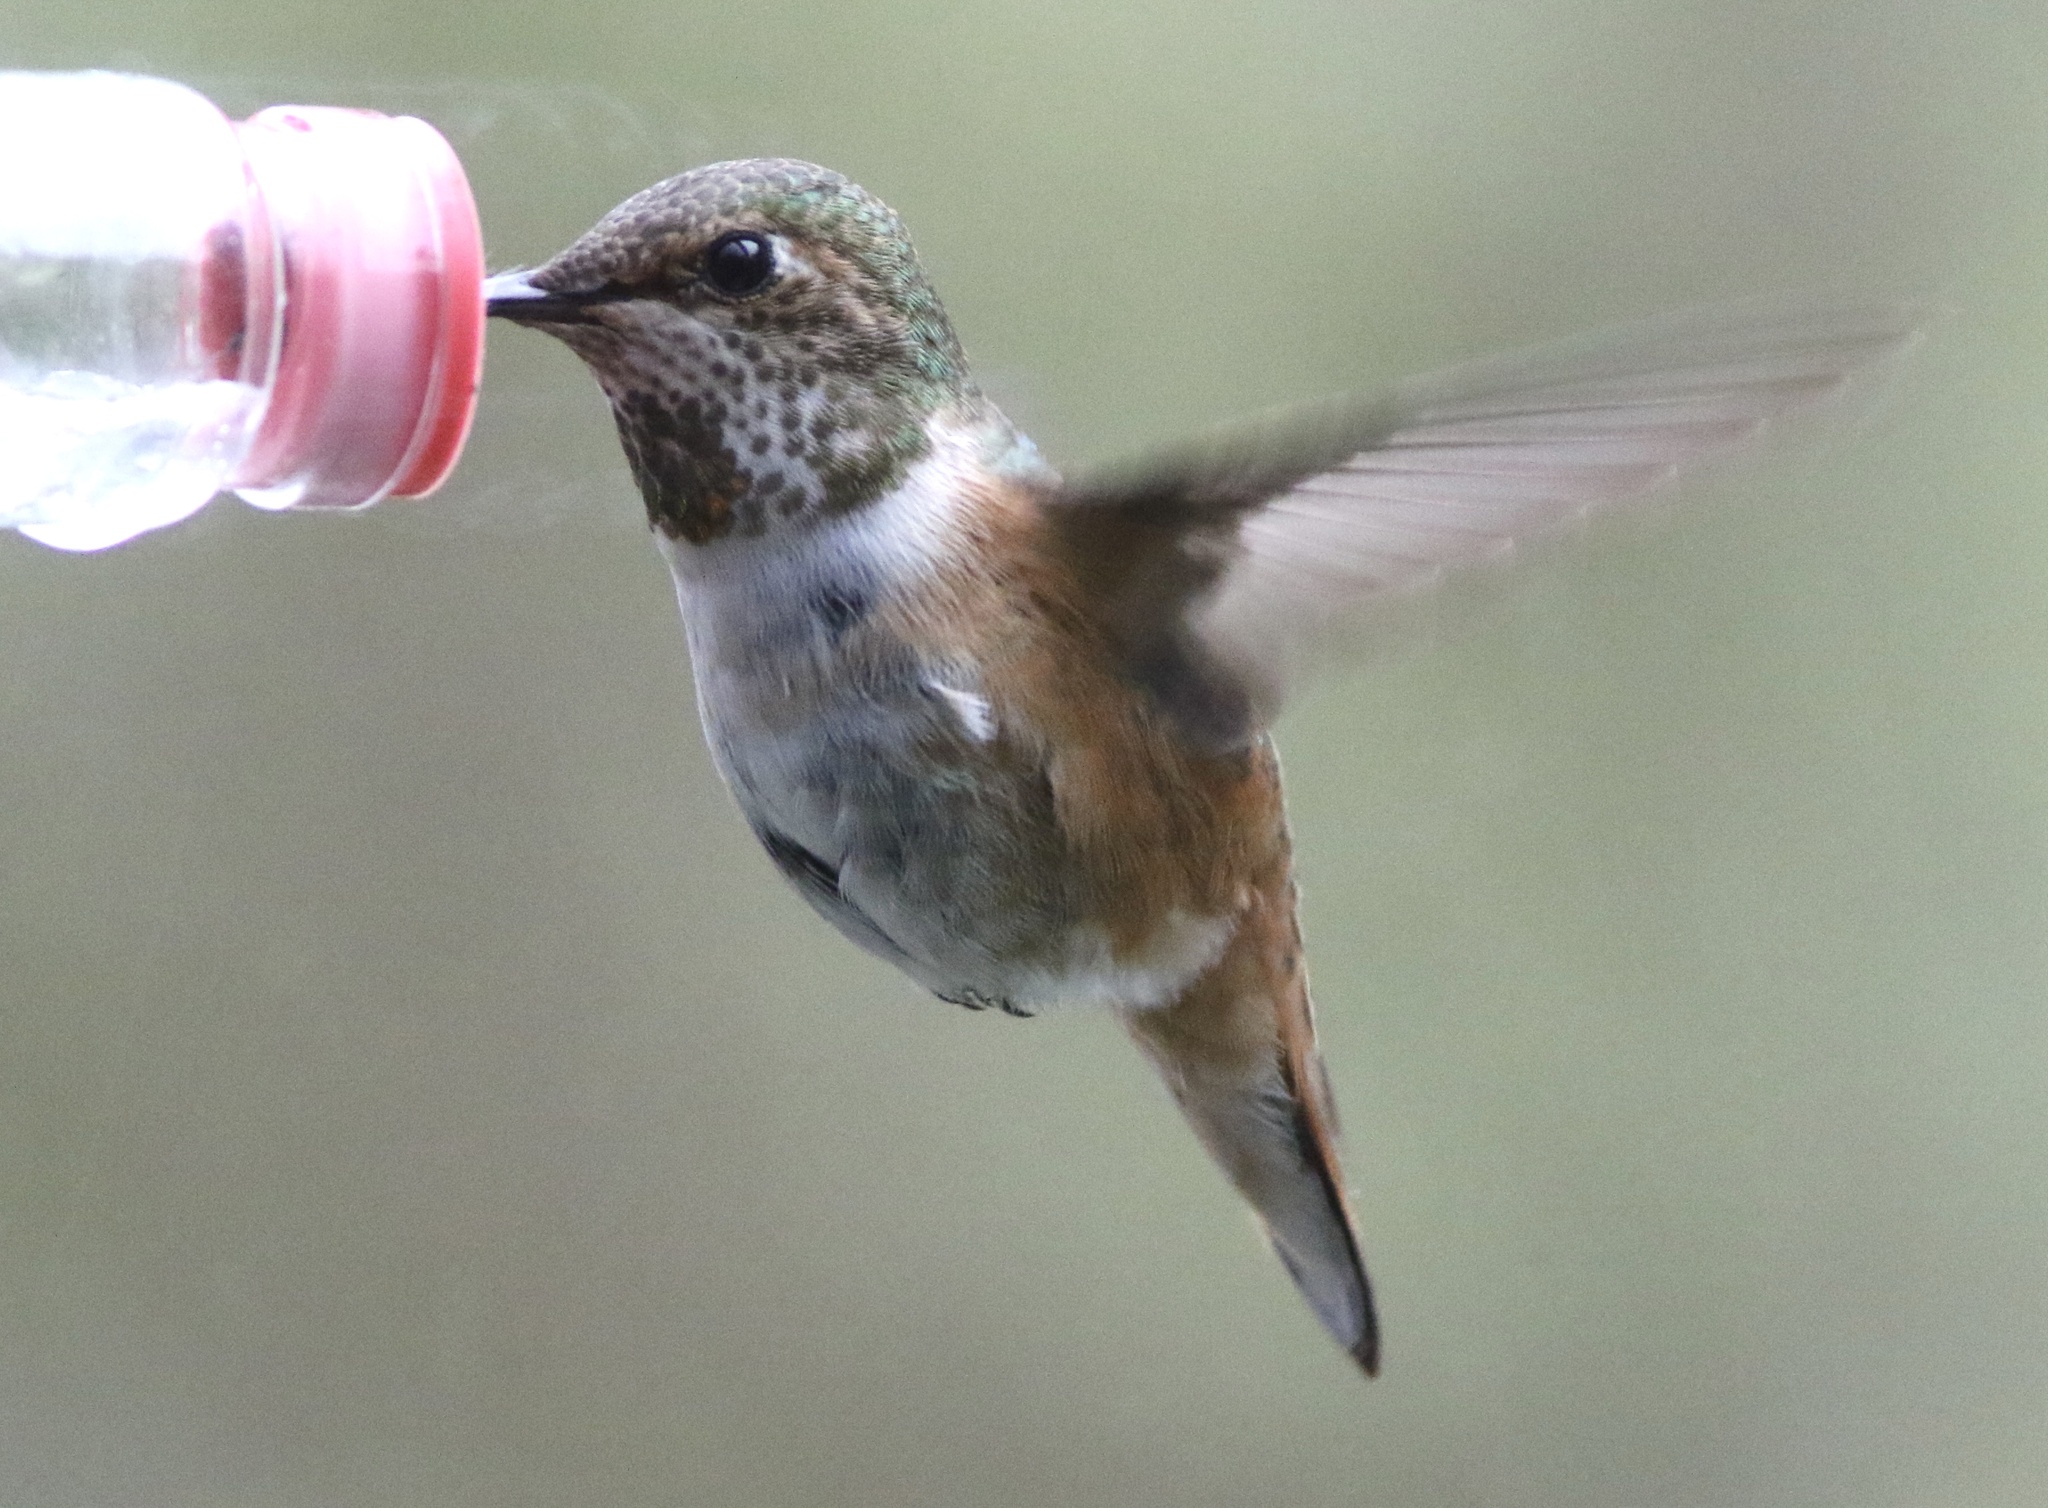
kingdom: Animalia
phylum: Chordata
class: Aves
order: Apodiformes
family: Trochilidae
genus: Selasphorus
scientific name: Selasphorus sasin
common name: Allen's hummingbird
